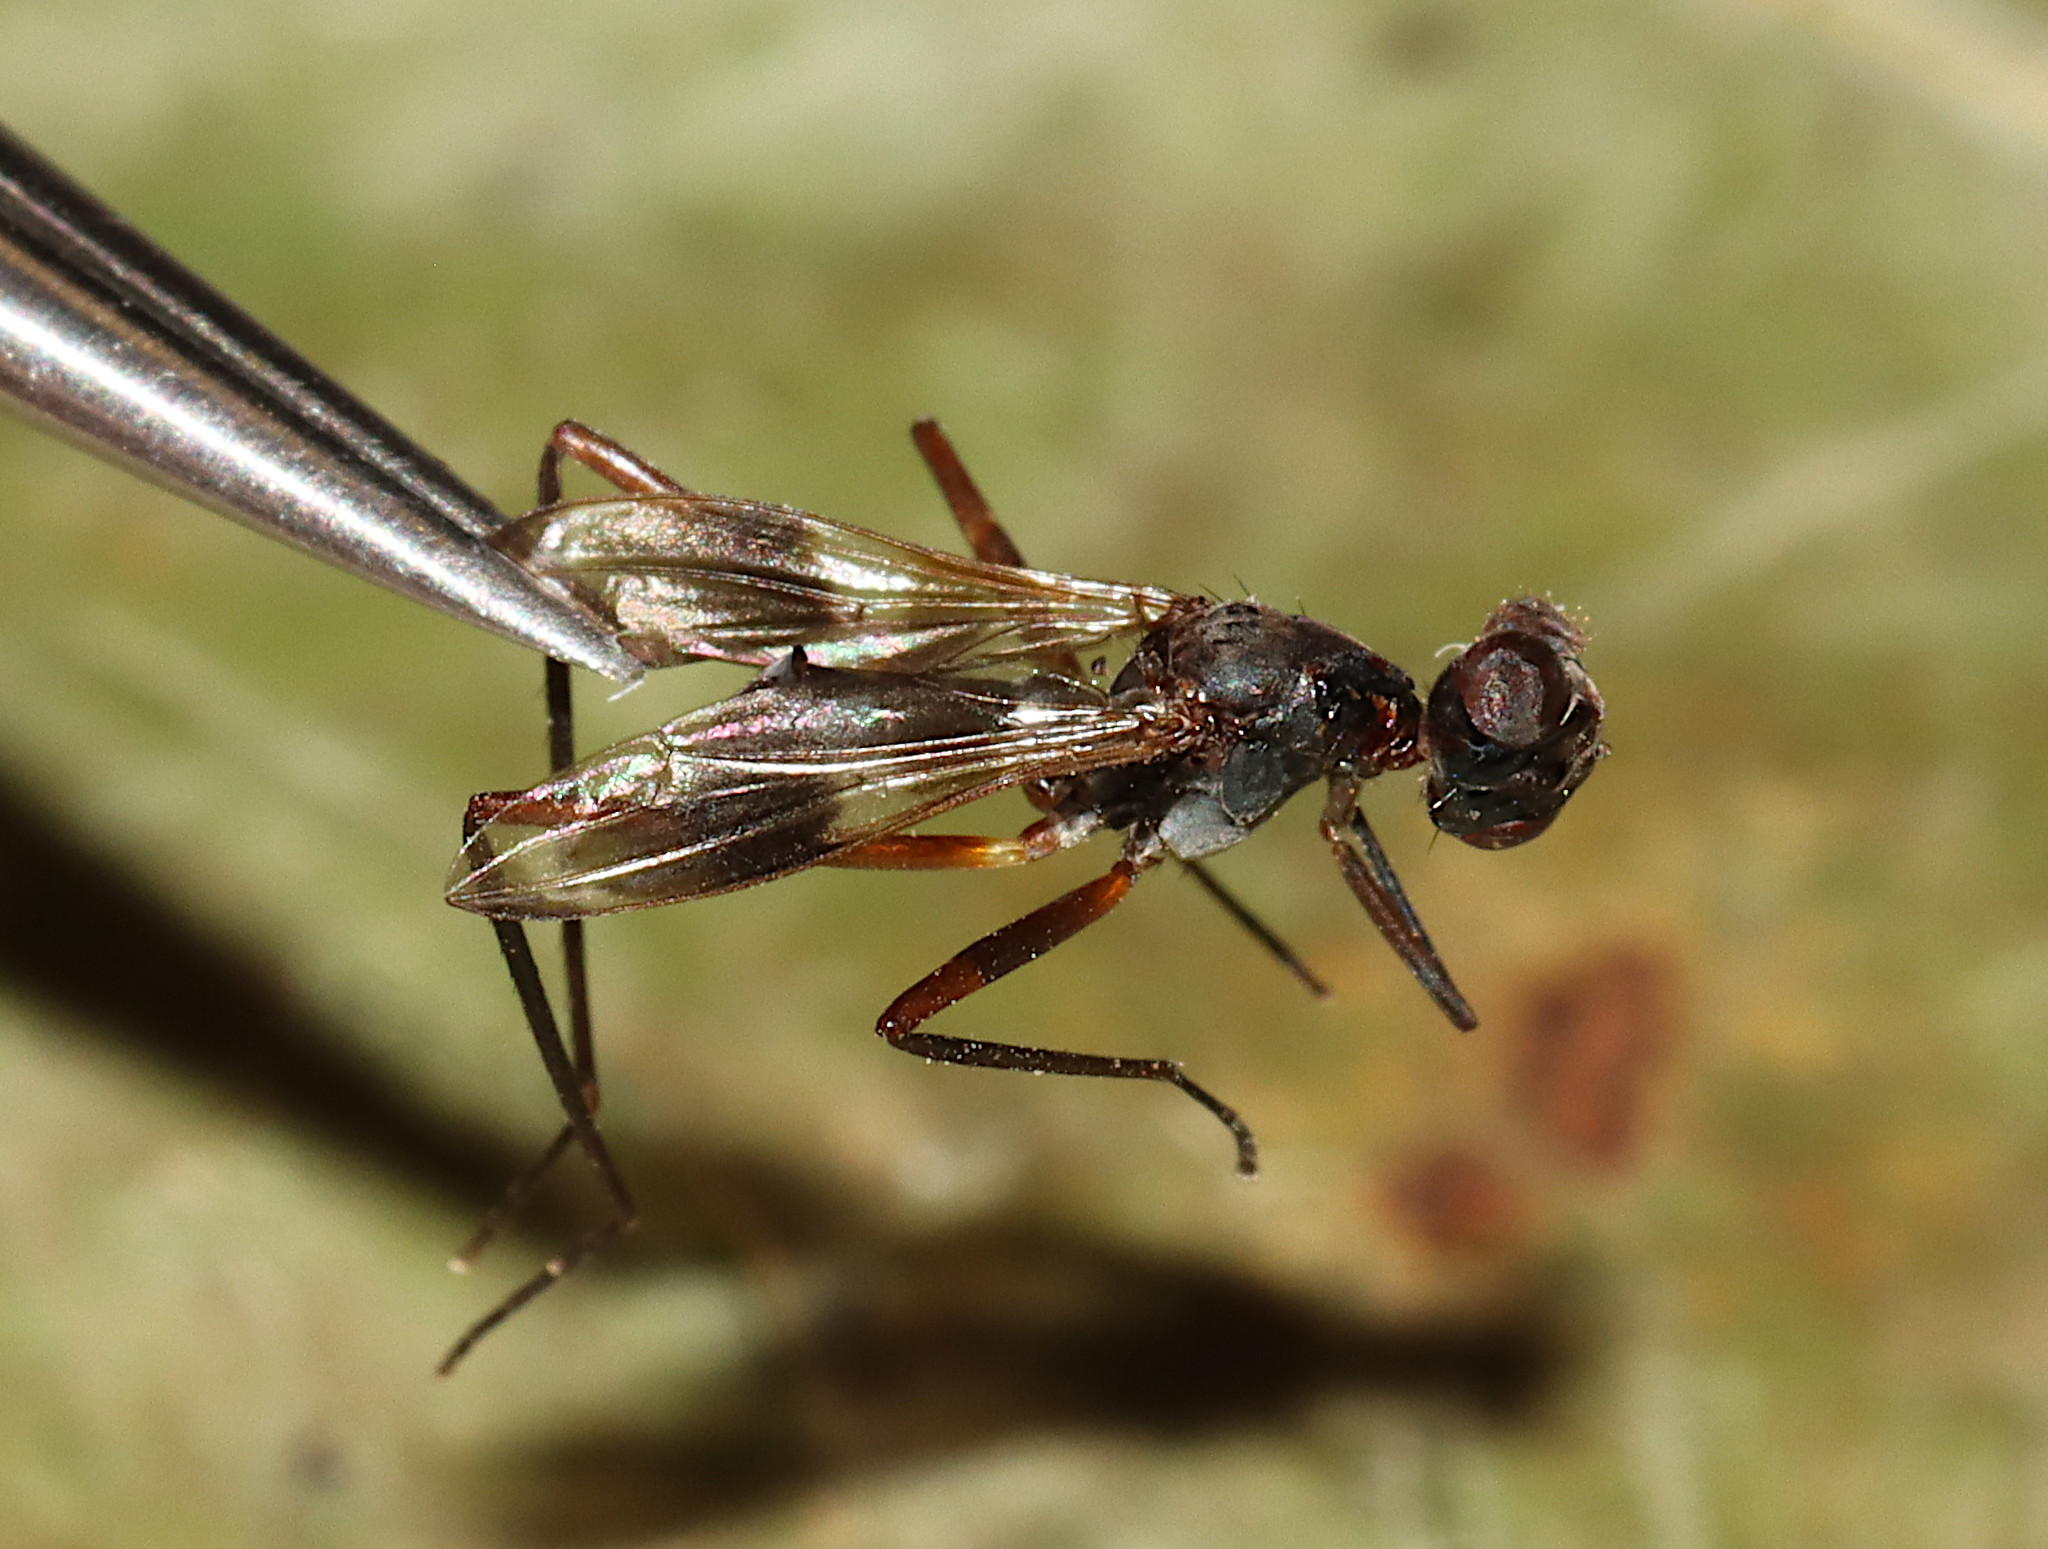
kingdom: Animalia
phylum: Arthropoda
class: Insecta
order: Diptera
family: Micropezidae
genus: Taeniaptera
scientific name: Taeniaptera trivittata
